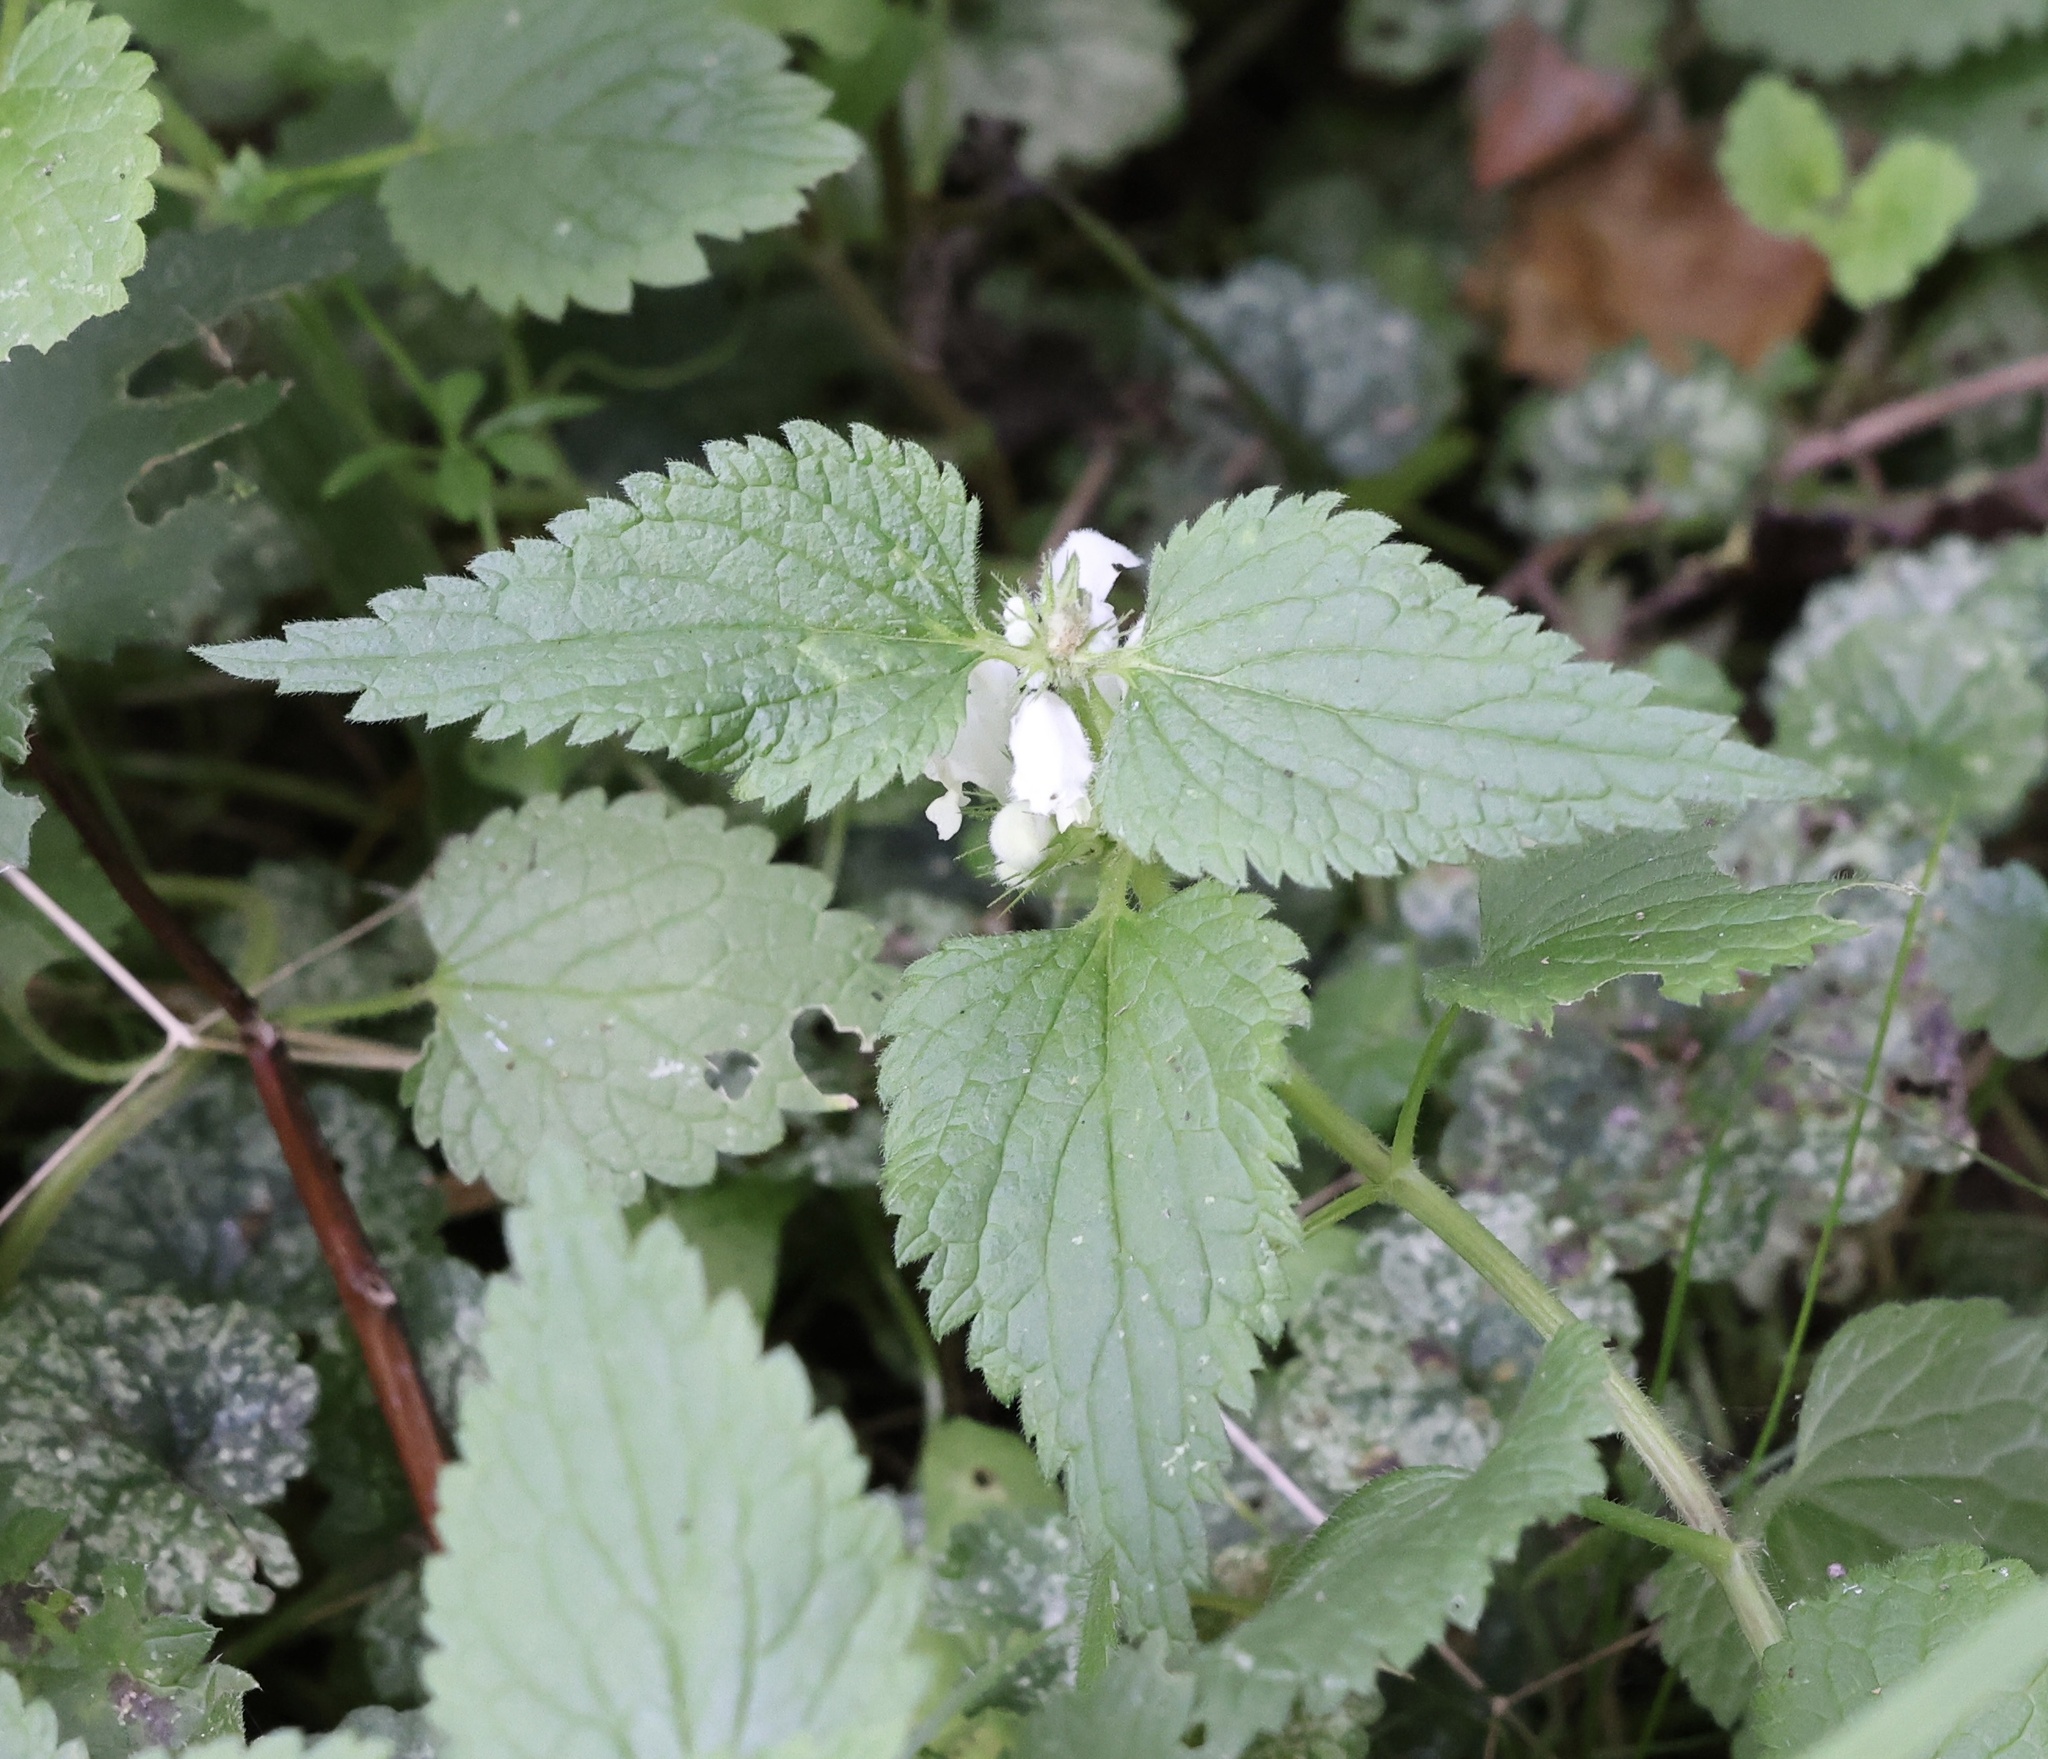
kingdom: Plantae
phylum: Tracheophyta
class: Magnoliopsida
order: Lamiales
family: Lamiaceae
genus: Lamium
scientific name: Lamium album
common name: White dead-nettle
